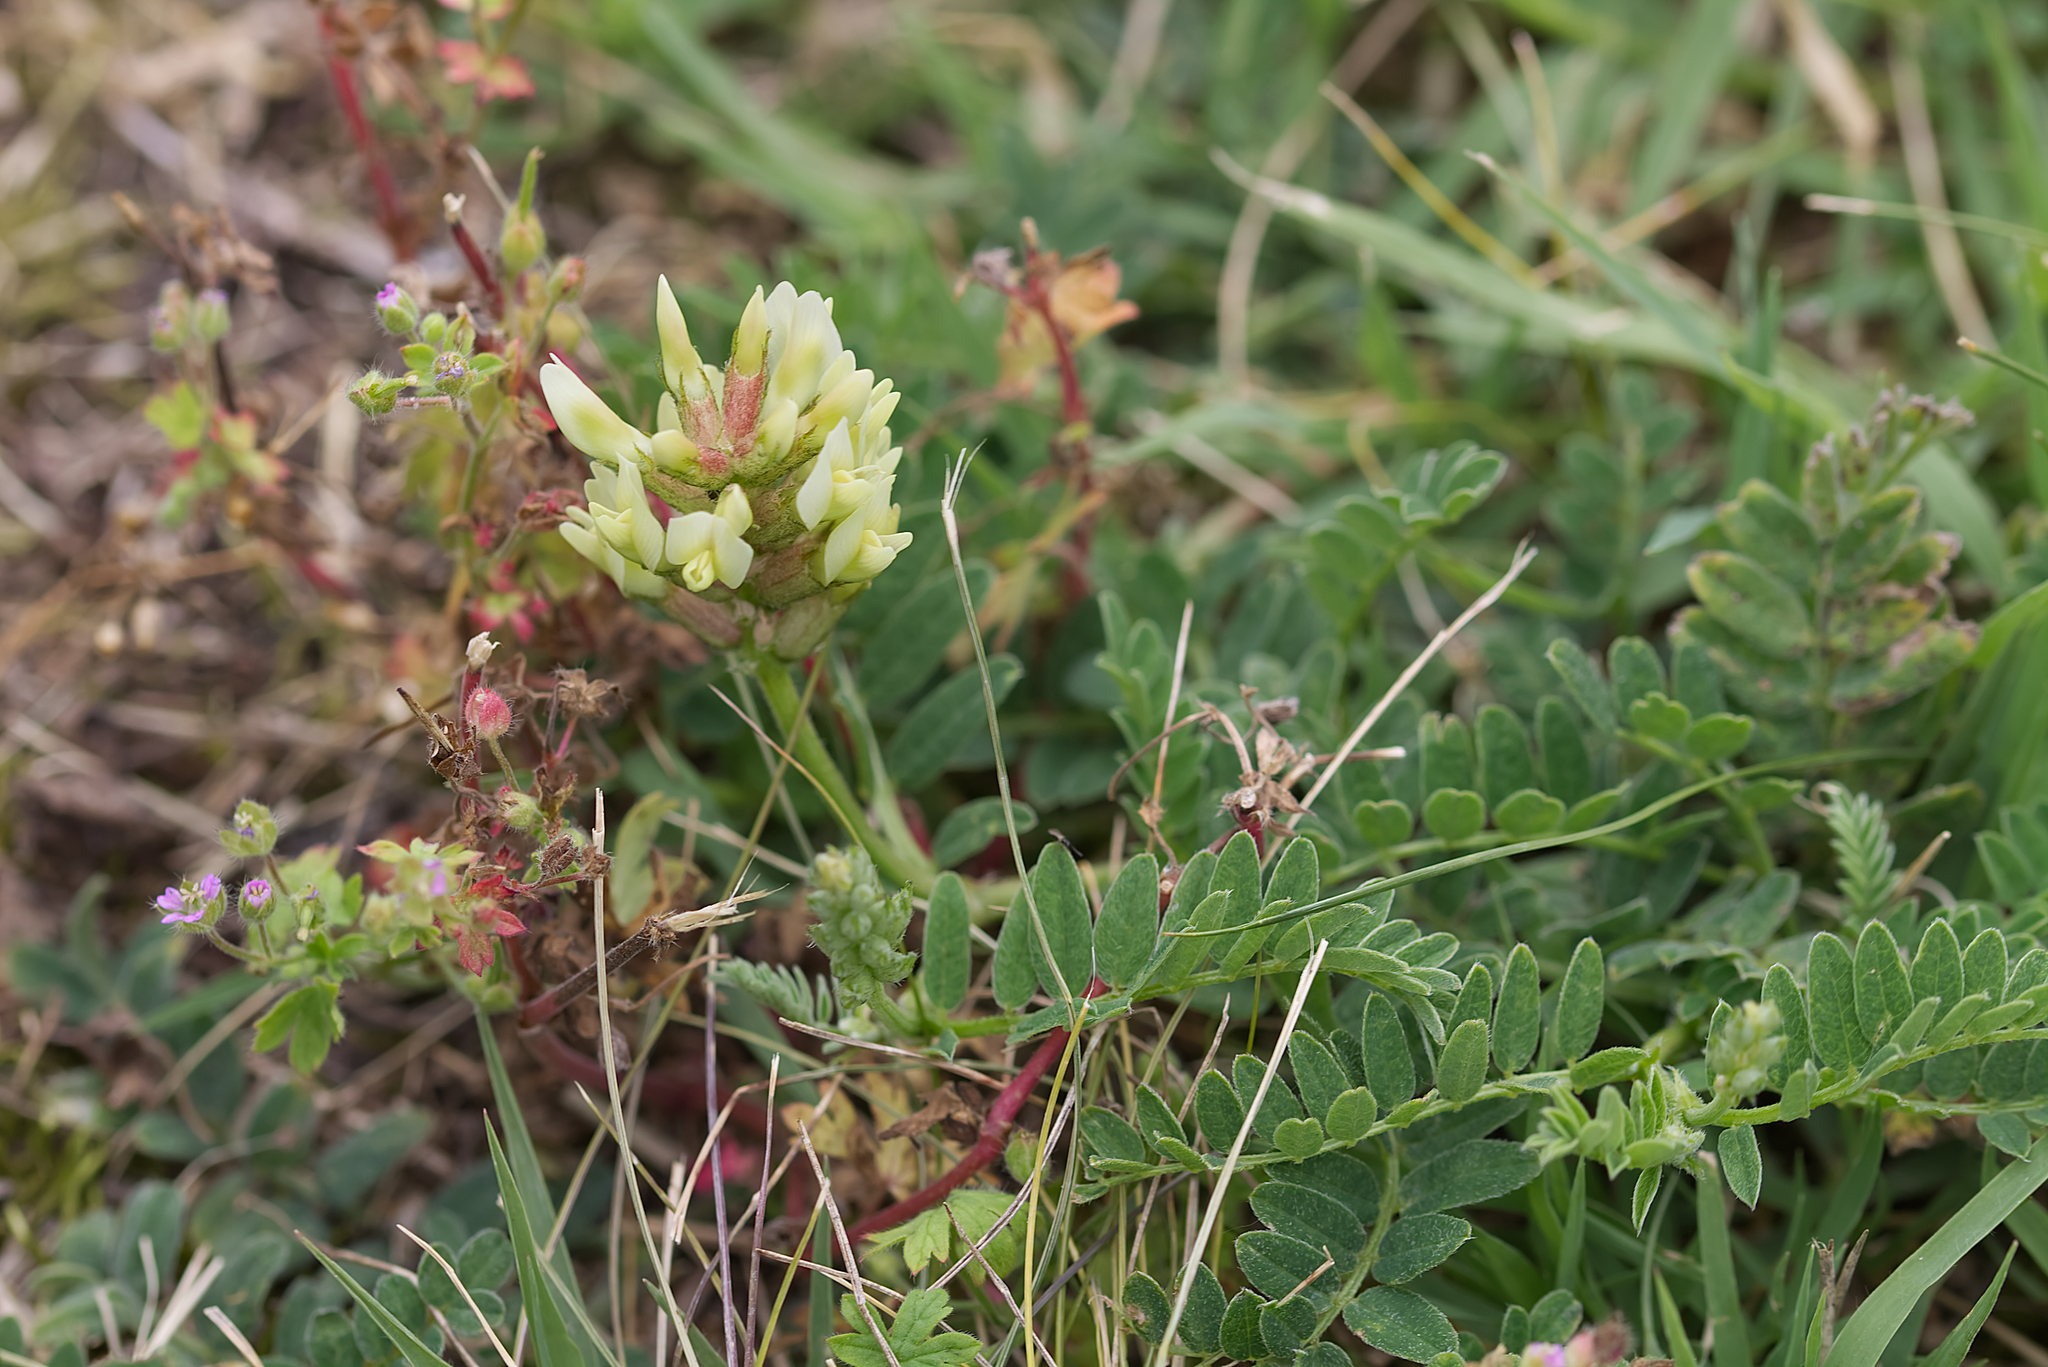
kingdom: Plantae
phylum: Tracheophyta
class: Magnoliopsida
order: Fabales
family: Fabaceae
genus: Astragalus
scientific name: Astragalus cicer
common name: Chick-pea milk-vetch
